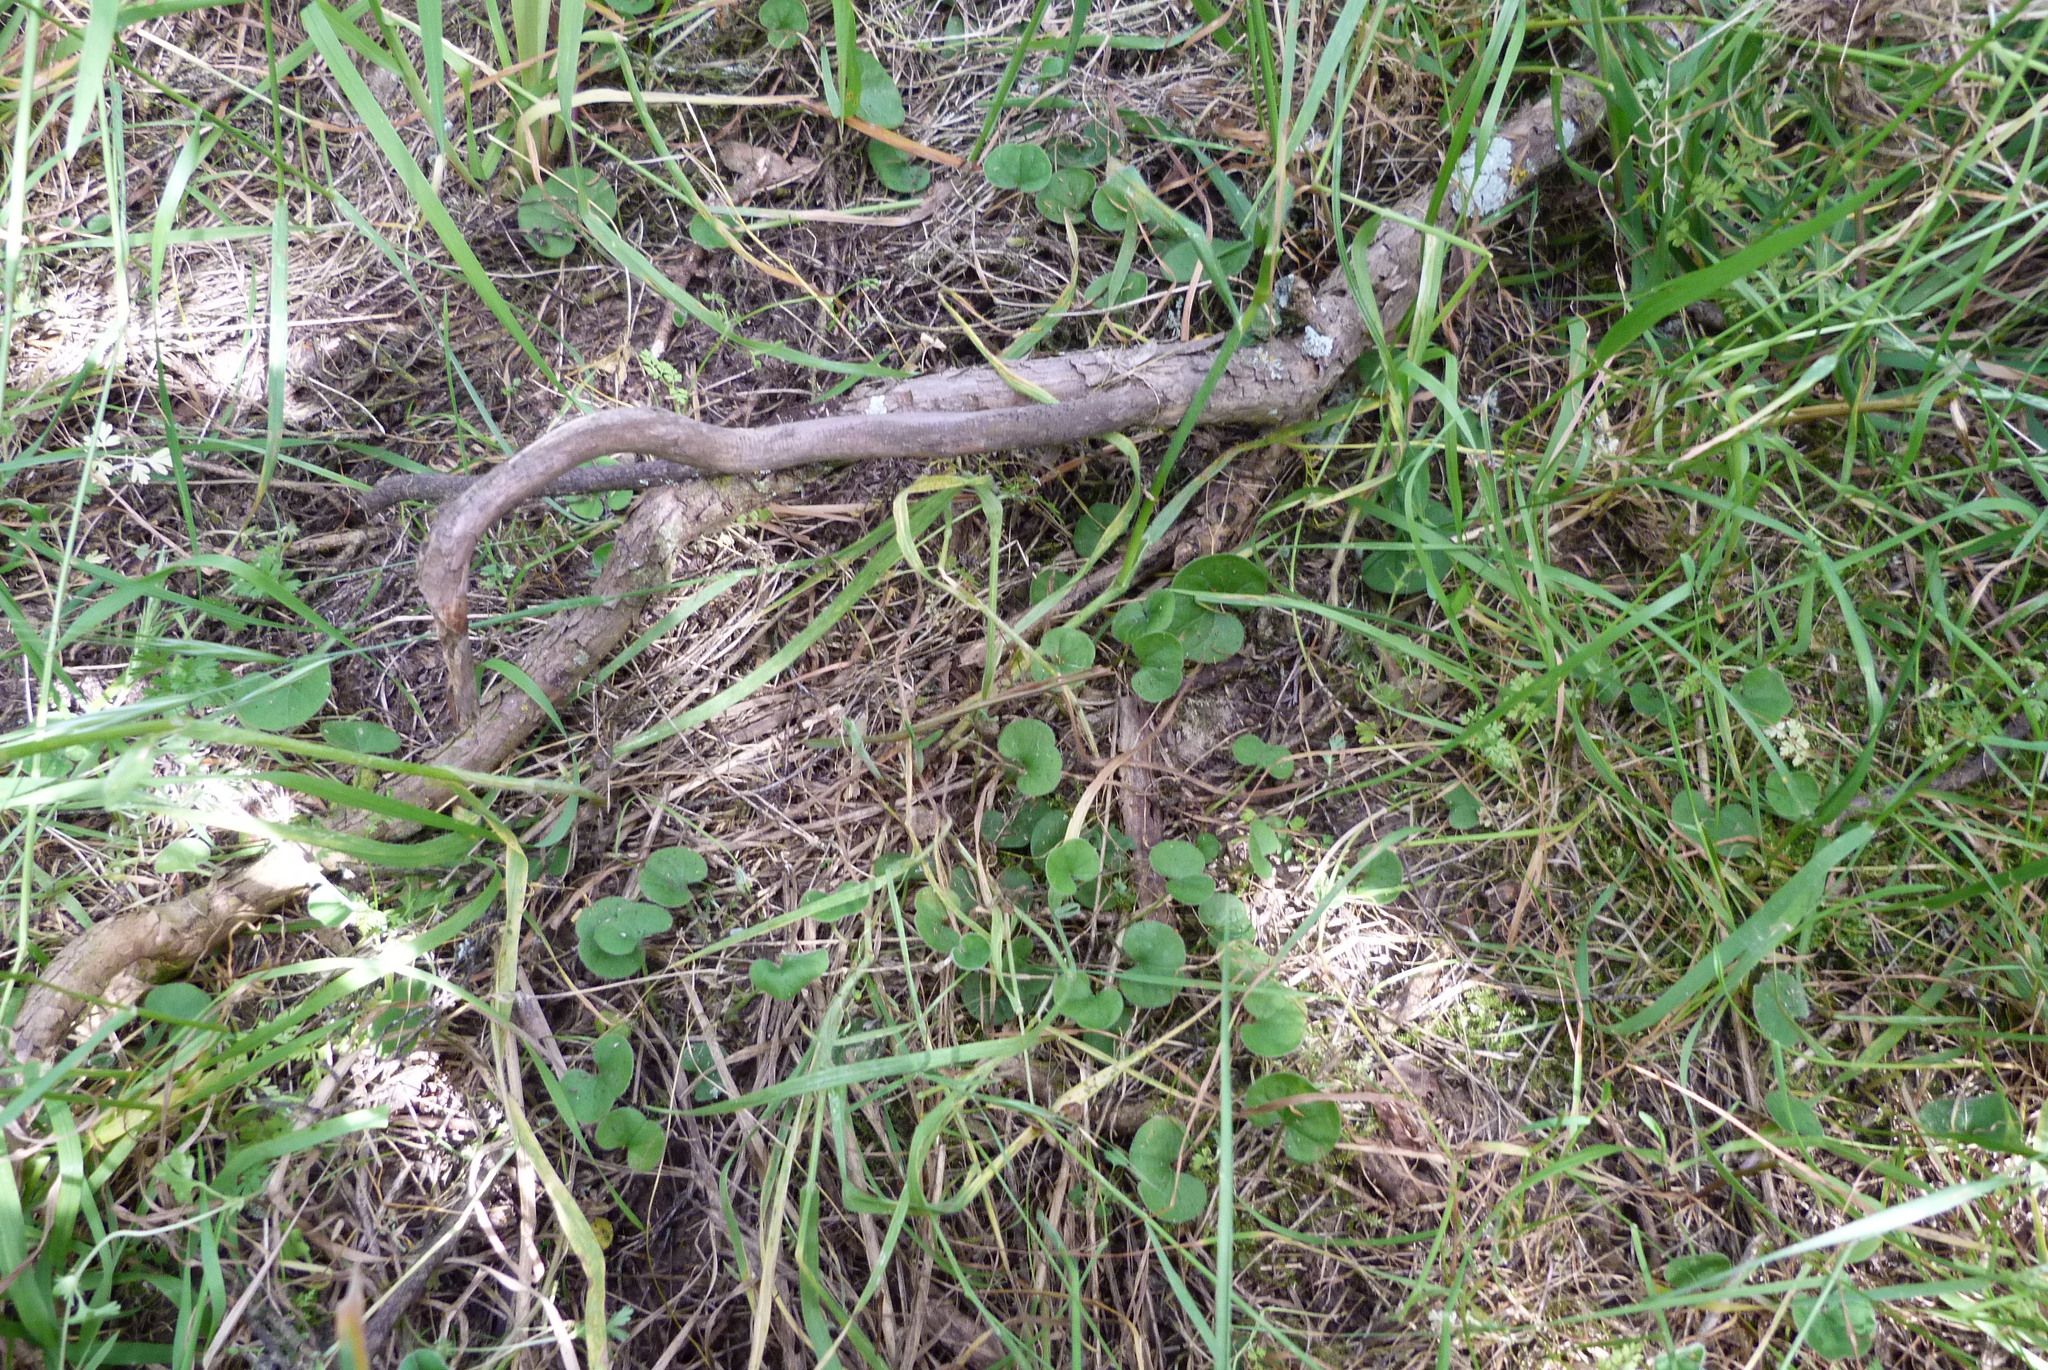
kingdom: Plantae
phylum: Tracheophyta
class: Magnoliopsida
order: Solanales
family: Convolvulaceae
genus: Dichondra
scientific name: Dichondra repens
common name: Kidneyweed
